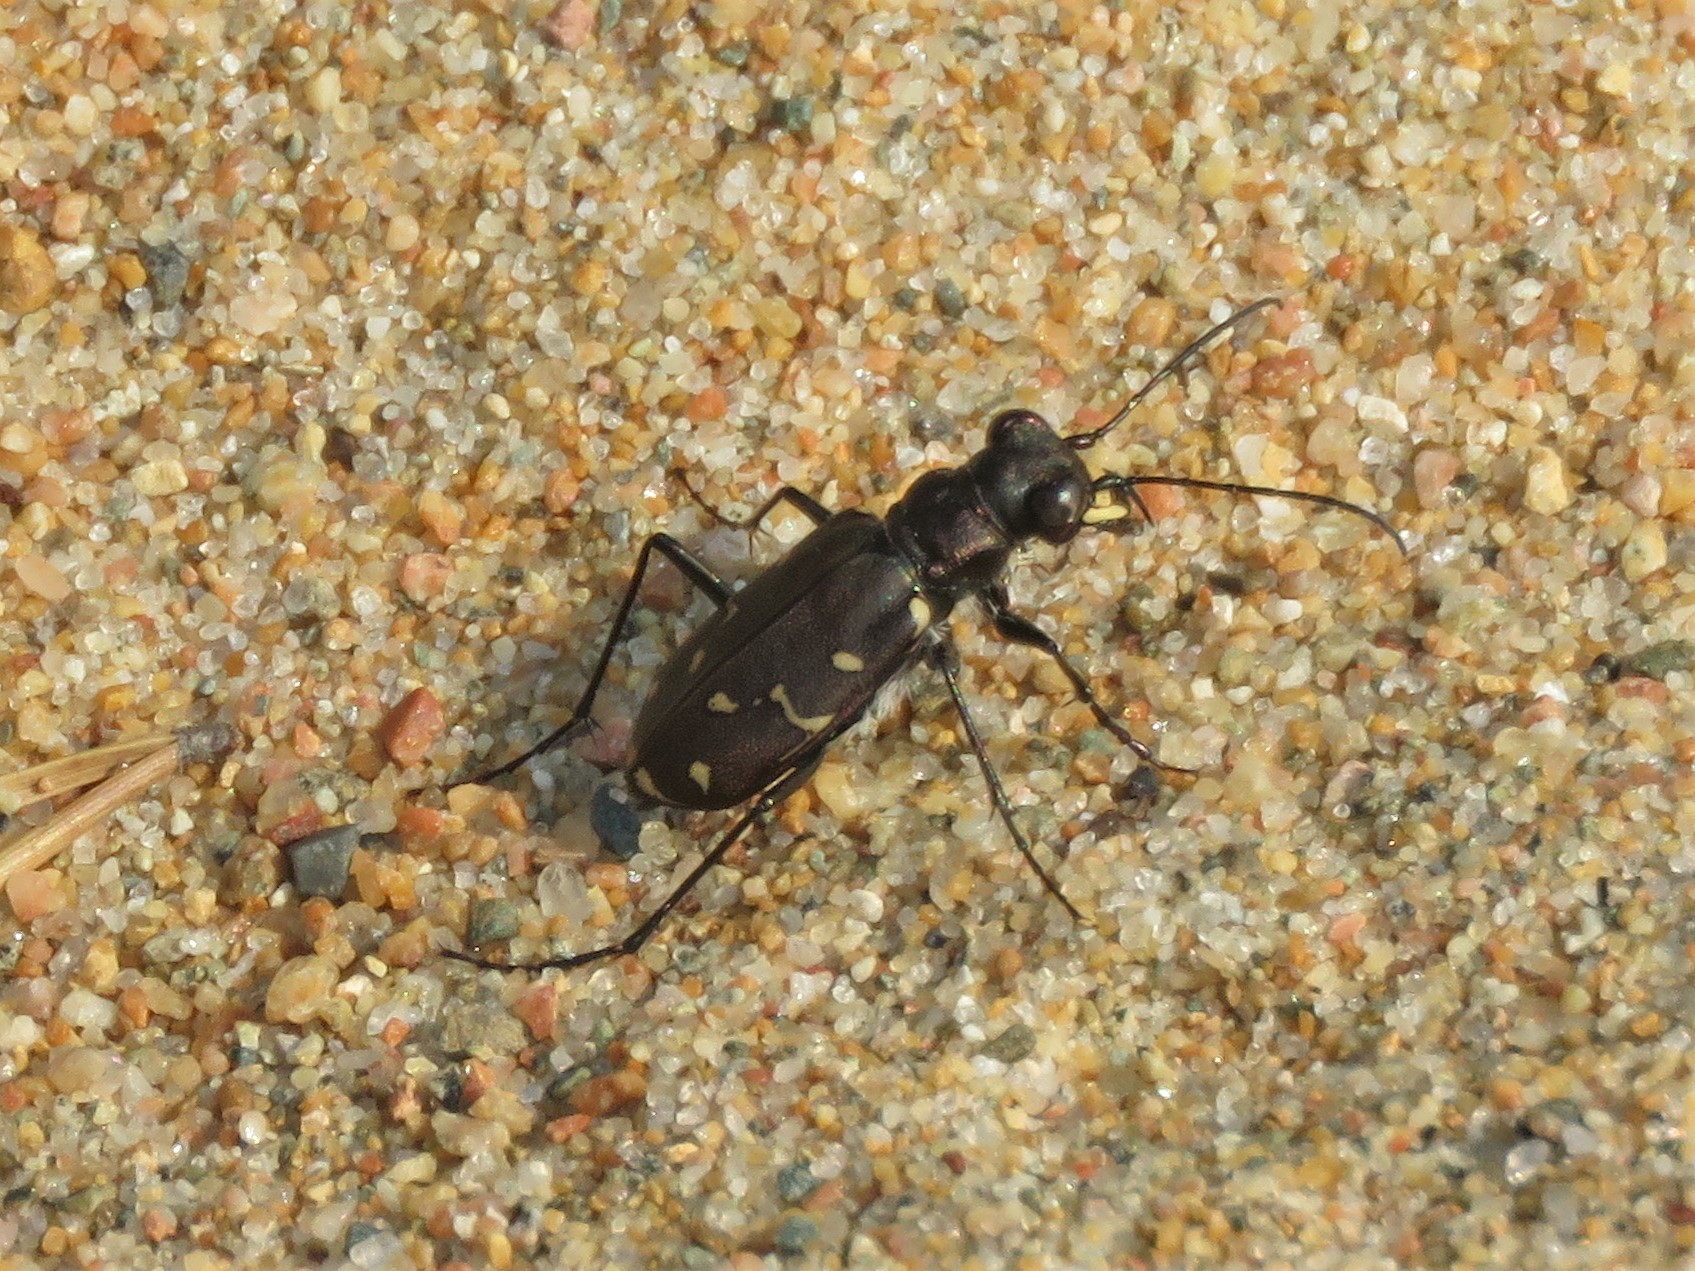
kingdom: Animalia
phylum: Arthropoda
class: Insecta
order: Coleoptera
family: Carabidae
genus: Cicindela
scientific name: Cicindela duodecimguttata
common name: Twelve-spotted tiger beetle
